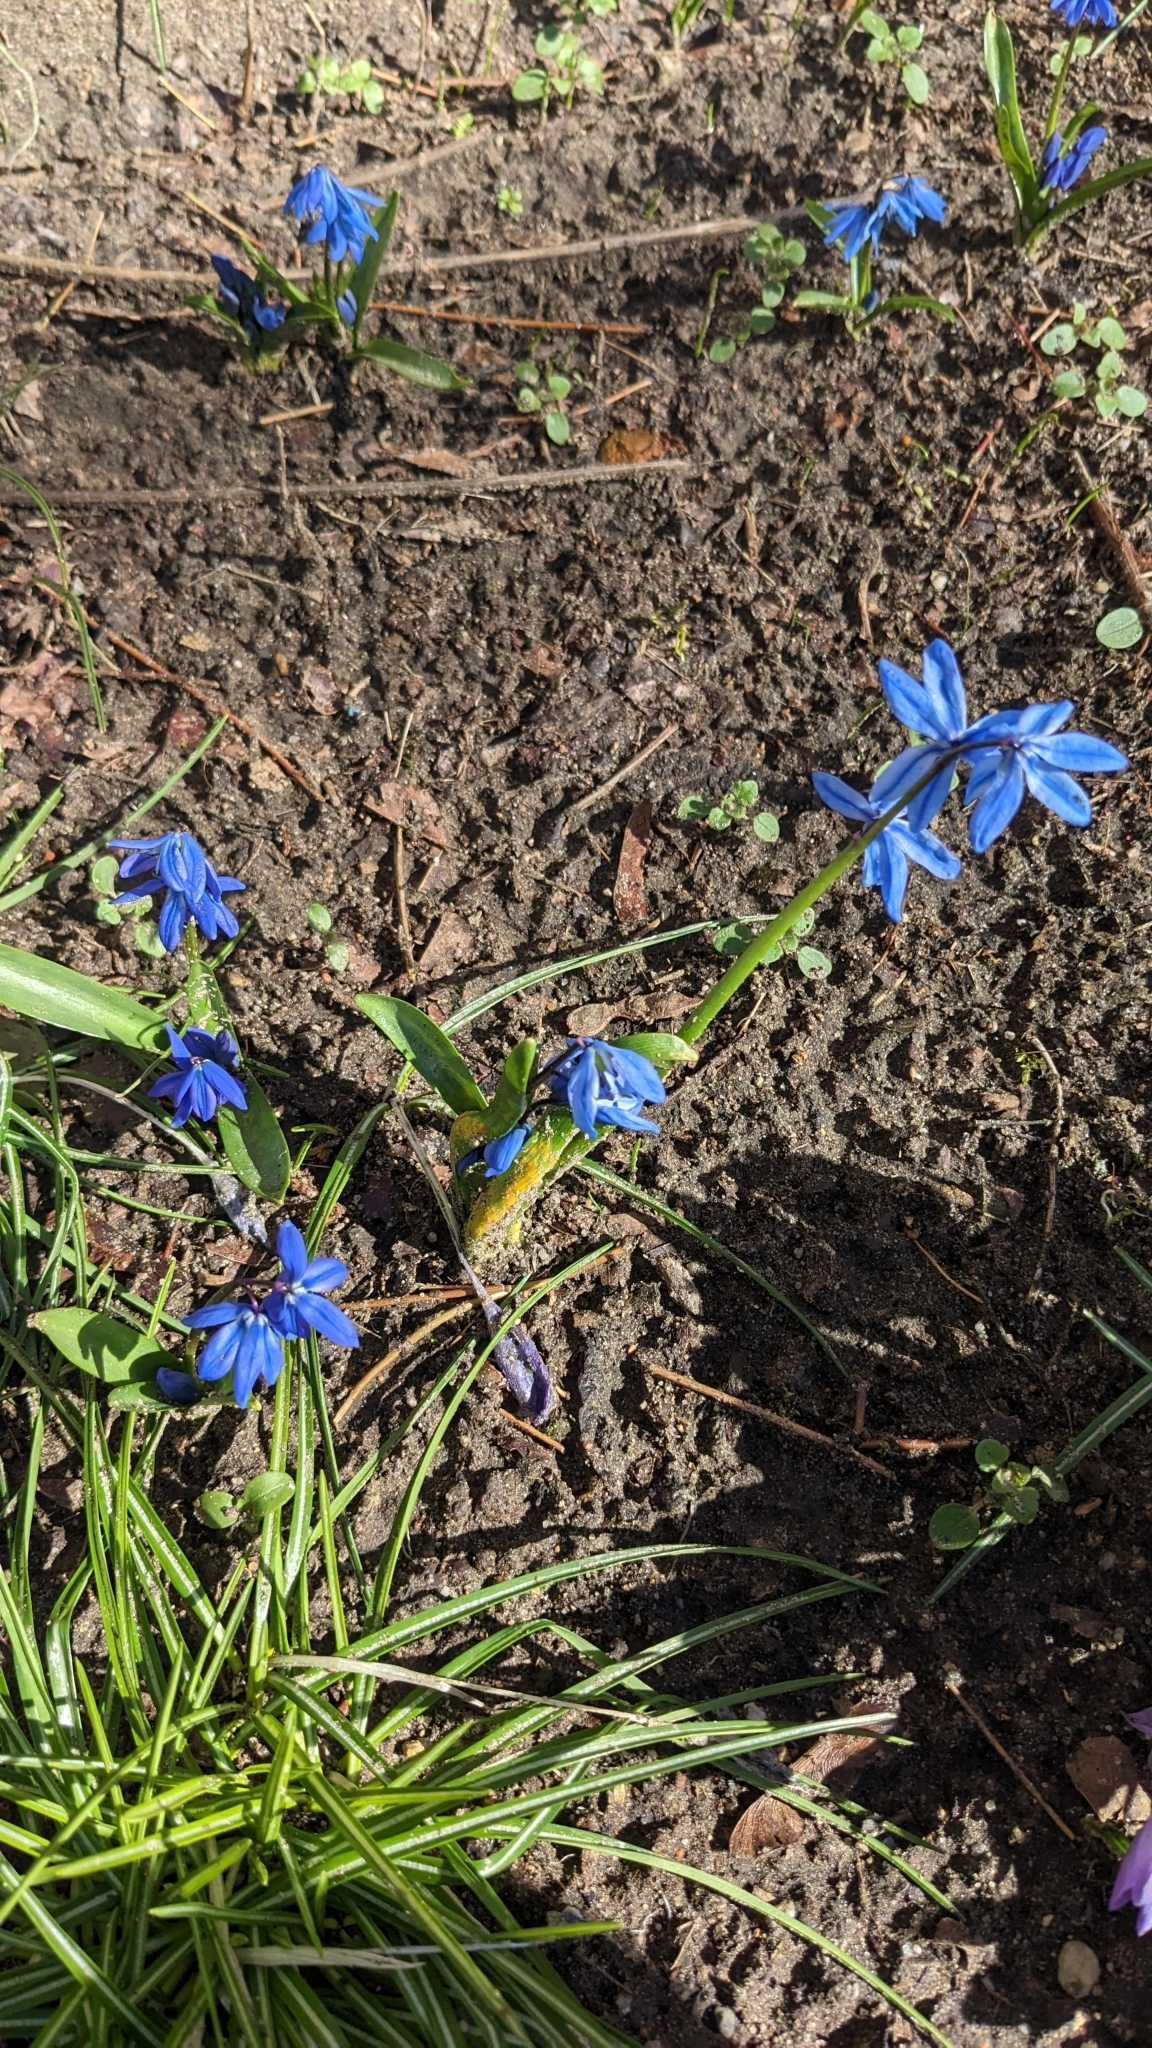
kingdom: Plantae
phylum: Tracheophyta
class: Liliopsida
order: Asparagales
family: Asparagaceae
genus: Scilla
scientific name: Scilla siberica
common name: Siberian squill
